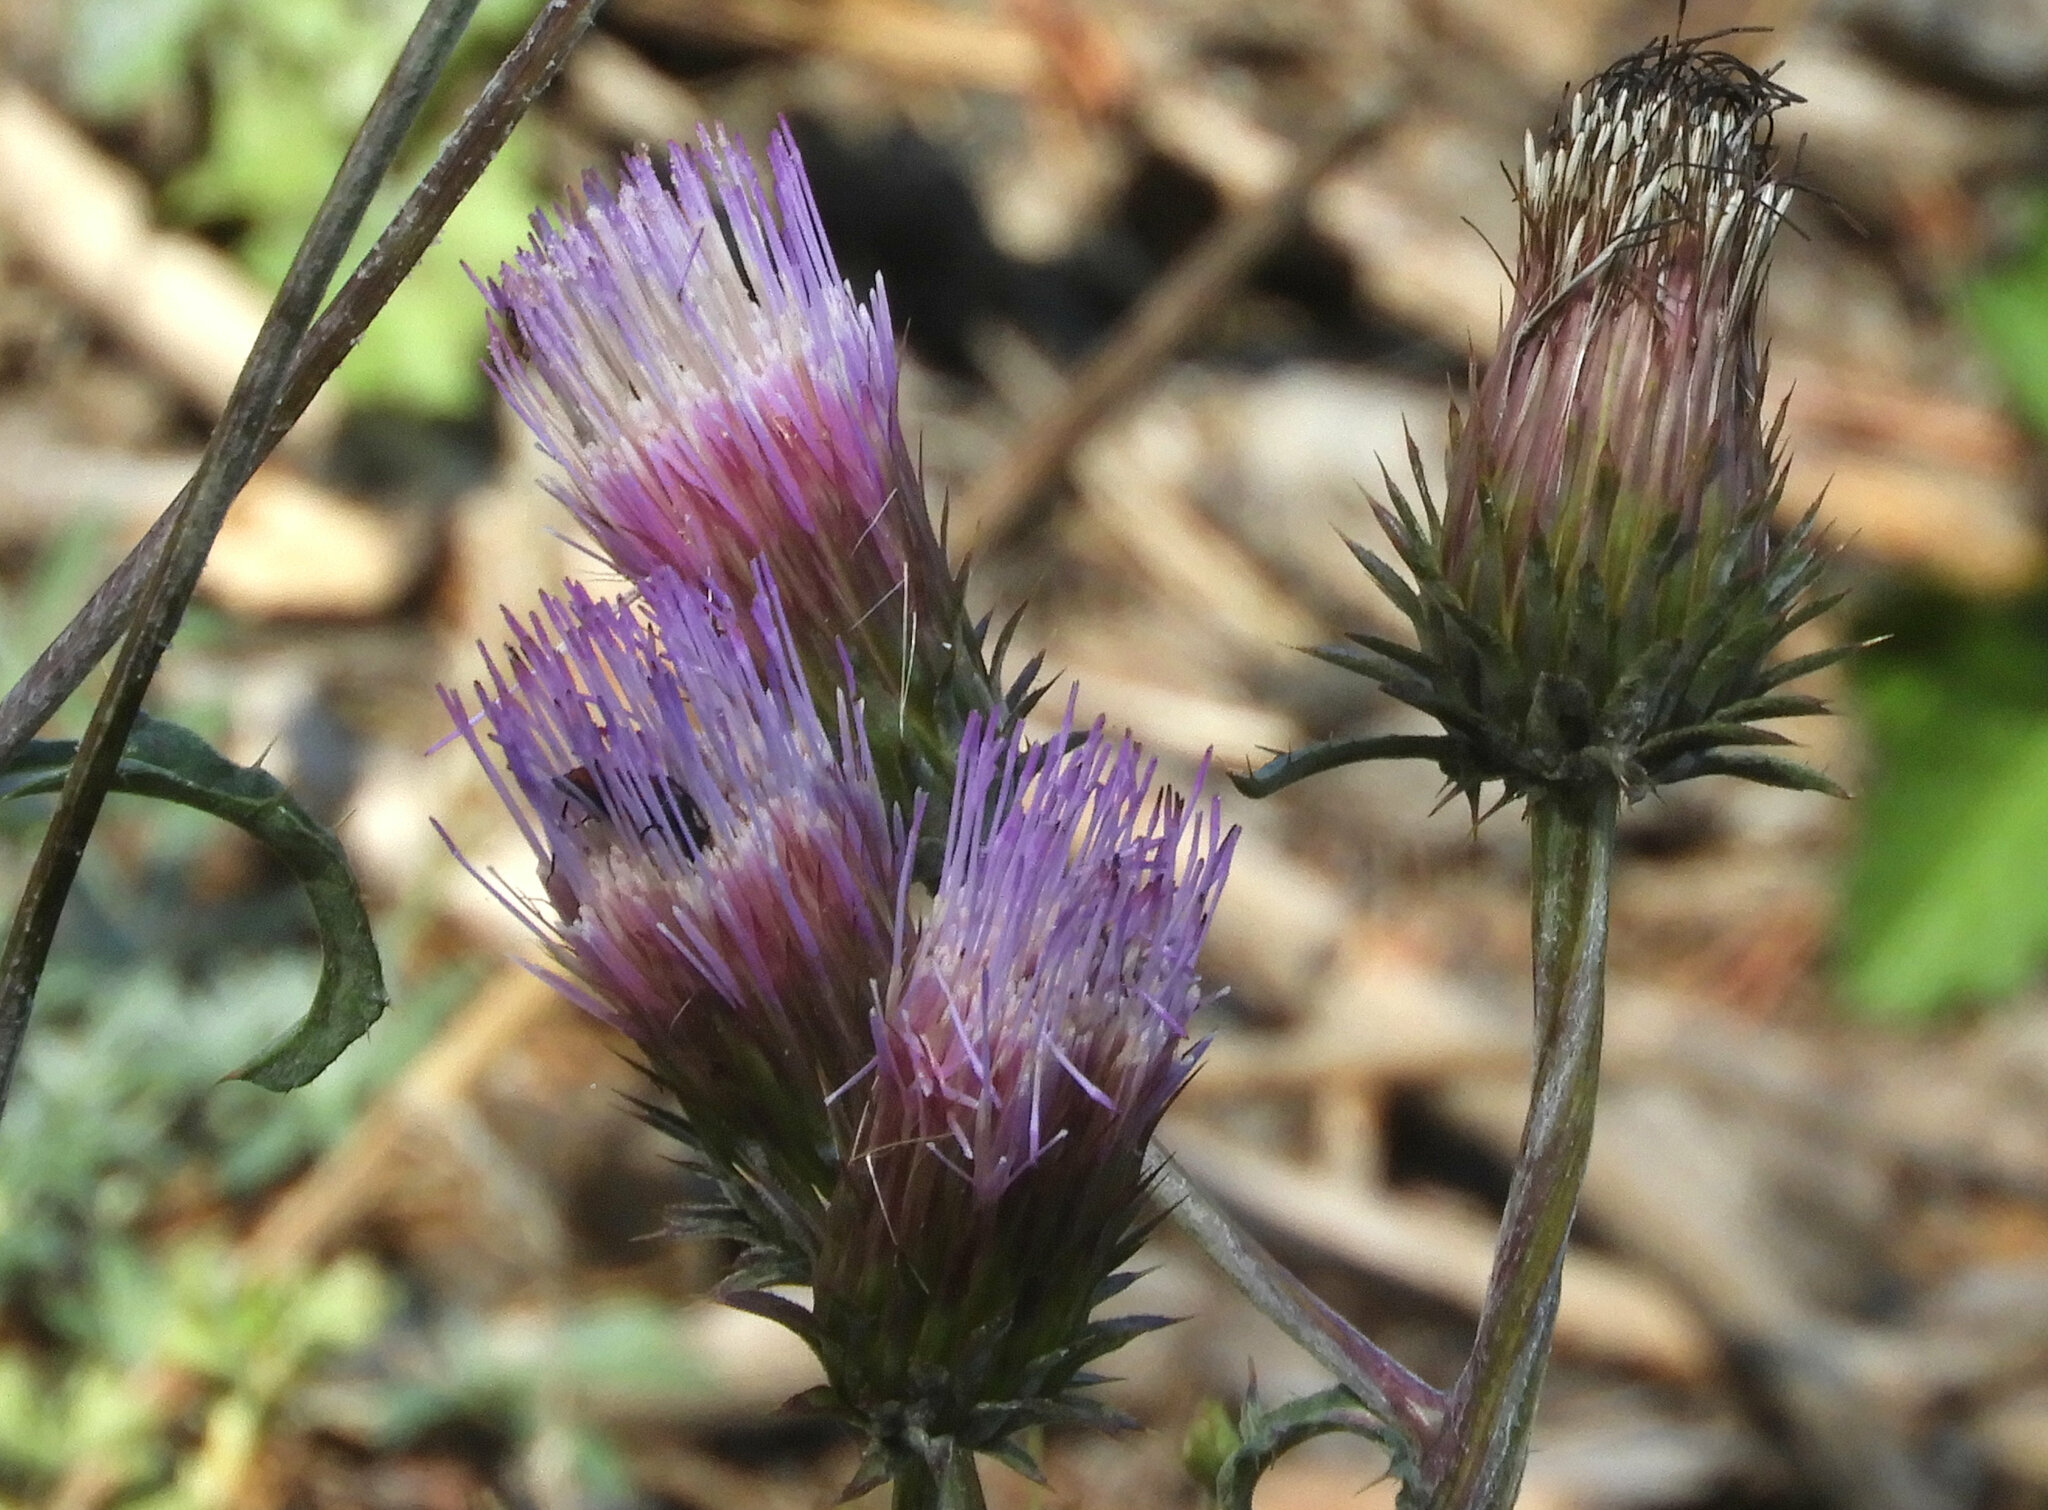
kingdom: Plantae
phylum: Tracheophyta
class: Magnoliopsida
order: Asterales
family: Asteraceae
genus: Cirsium
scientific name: Cirsium andersonii
